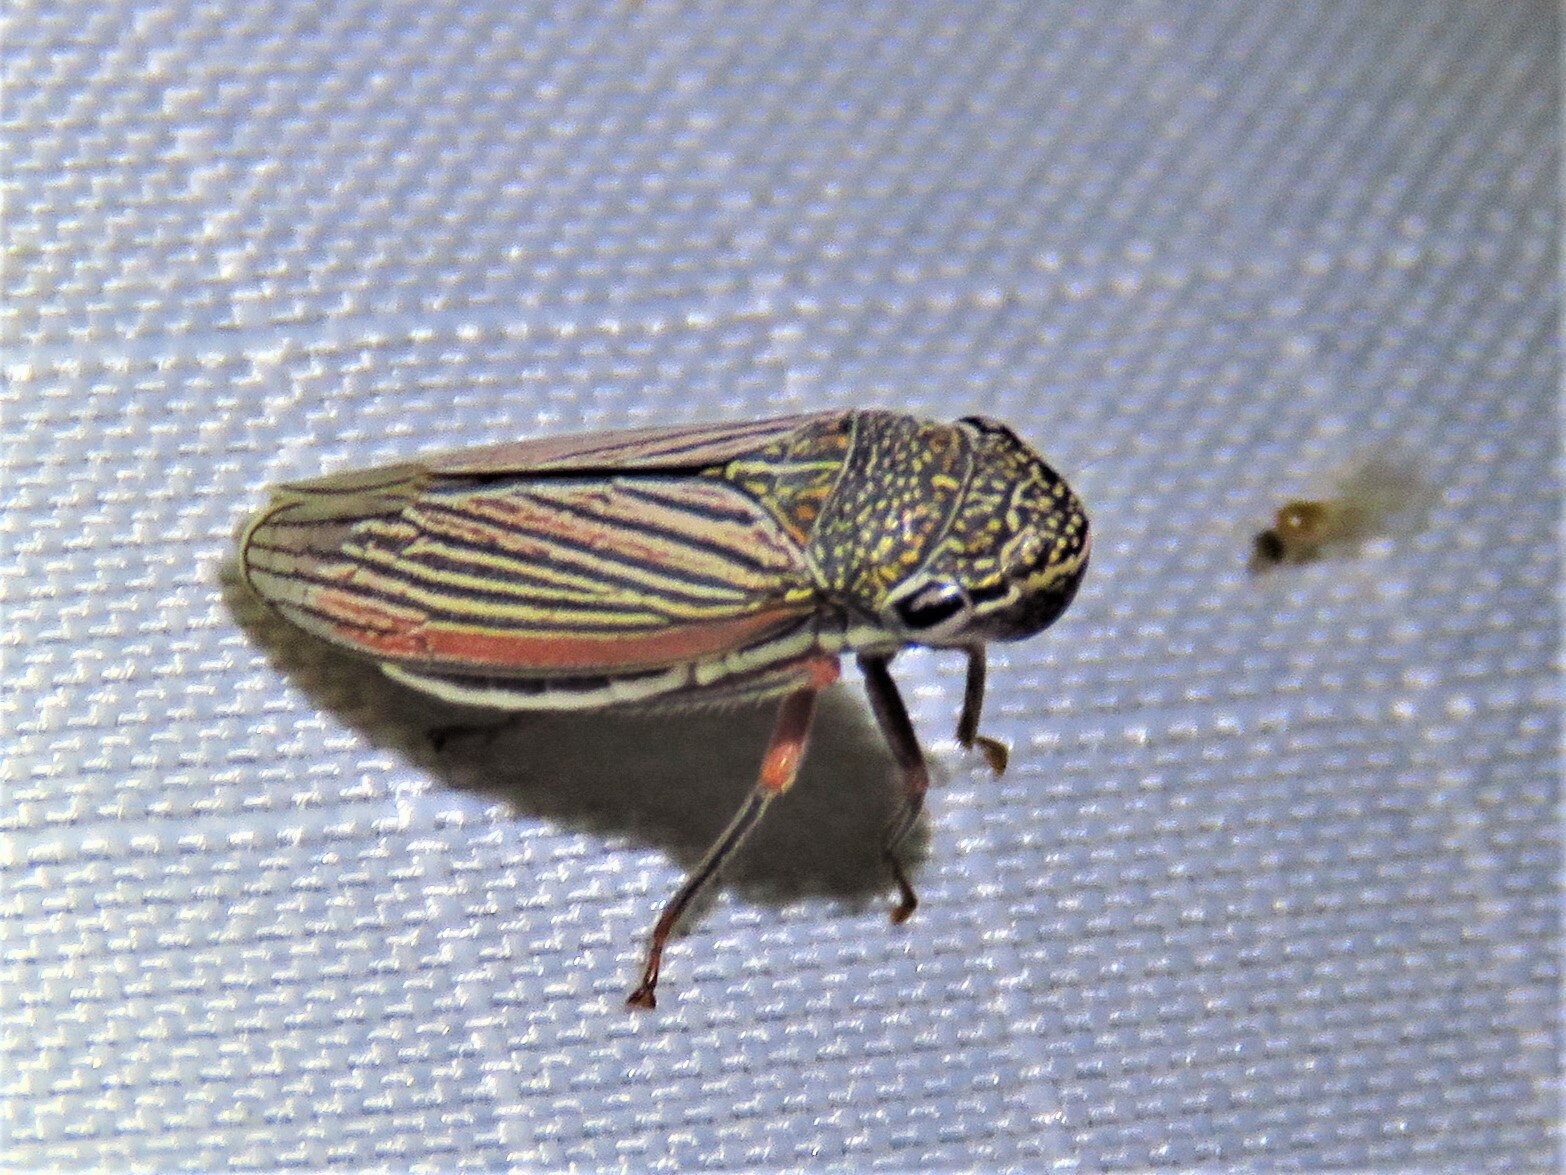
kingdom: Animalia
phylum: Arthropoda
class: Insecta
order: Hemiptera
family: Cicadellidae
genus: Cuerna
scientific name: Cuerna costalis
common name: Lateral-lined sharpshooter
